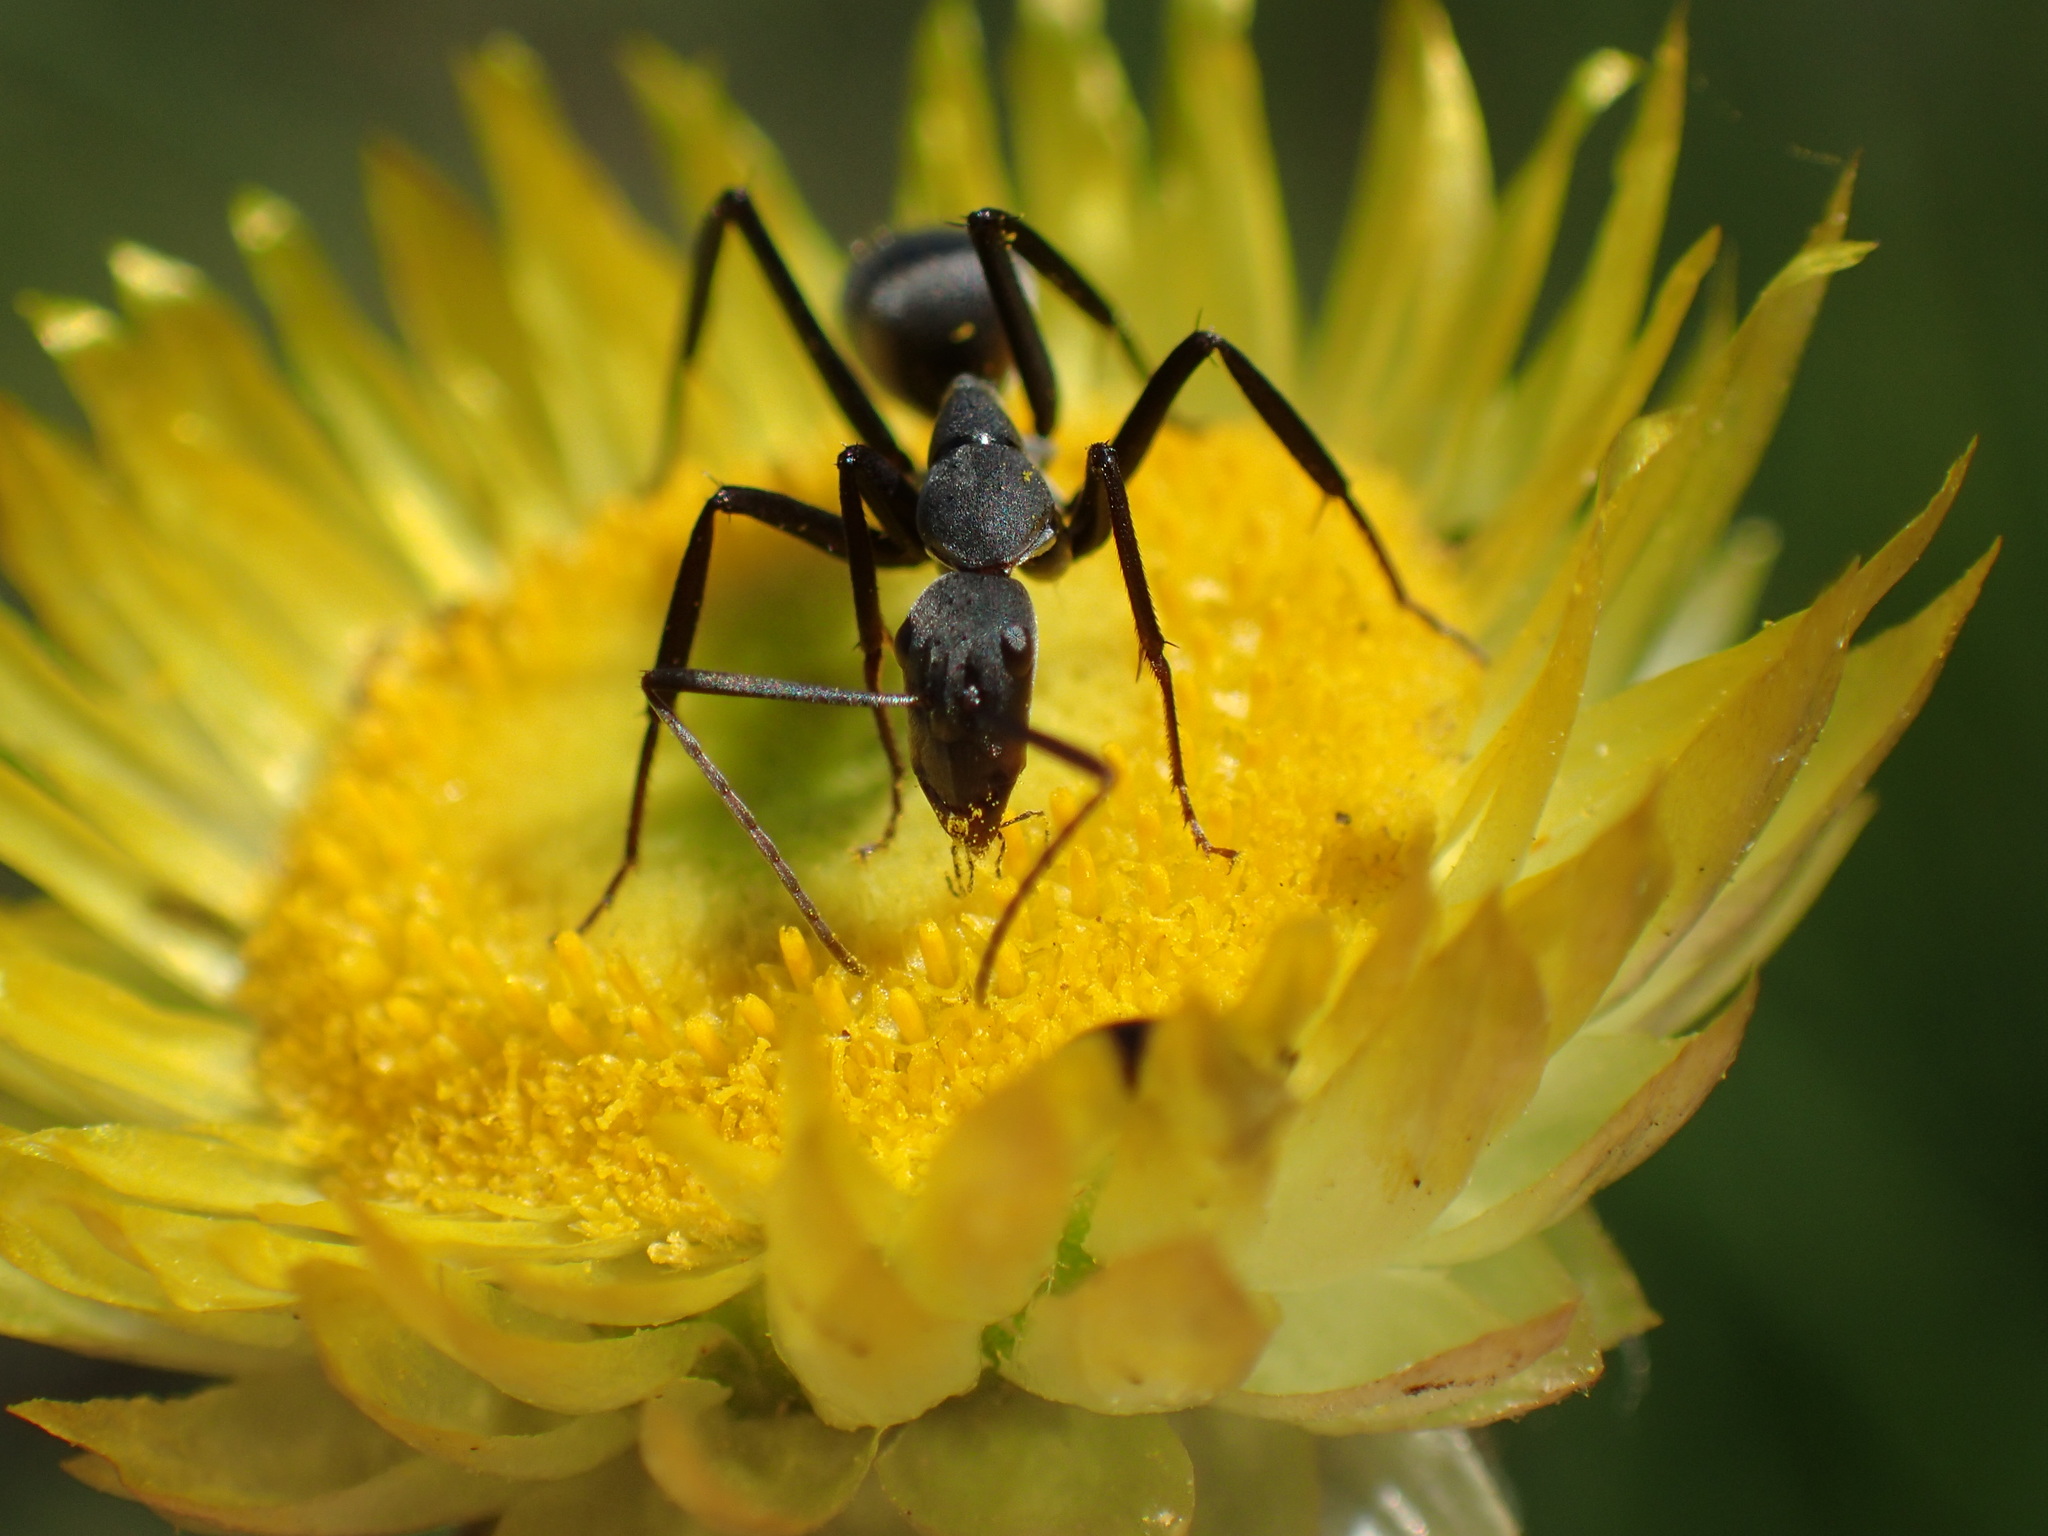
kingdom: Animalia
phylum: Arthropoda
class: Insecta
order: Hymenoptera
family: Formicidae
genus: Camponotus
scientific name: Camponotus petersii
